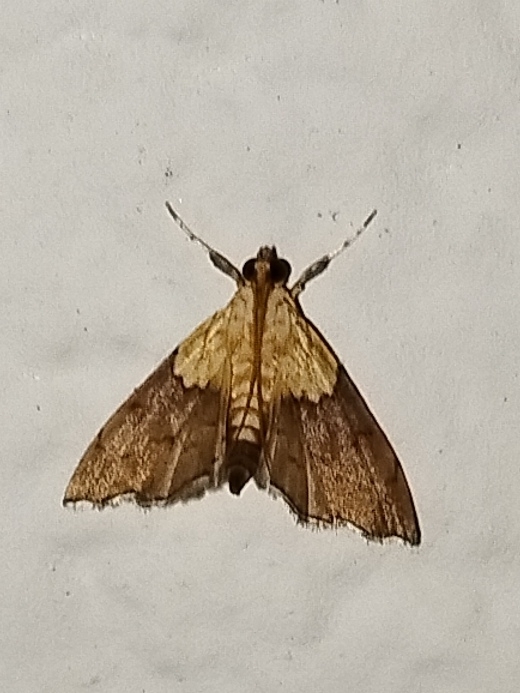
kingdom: Animalia
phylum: Arthropoda
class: Insecta
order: Lepidoptera
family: Crambidae
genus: Agrotera
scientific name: Agrotera nemoralis
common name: Beautiful pearl
